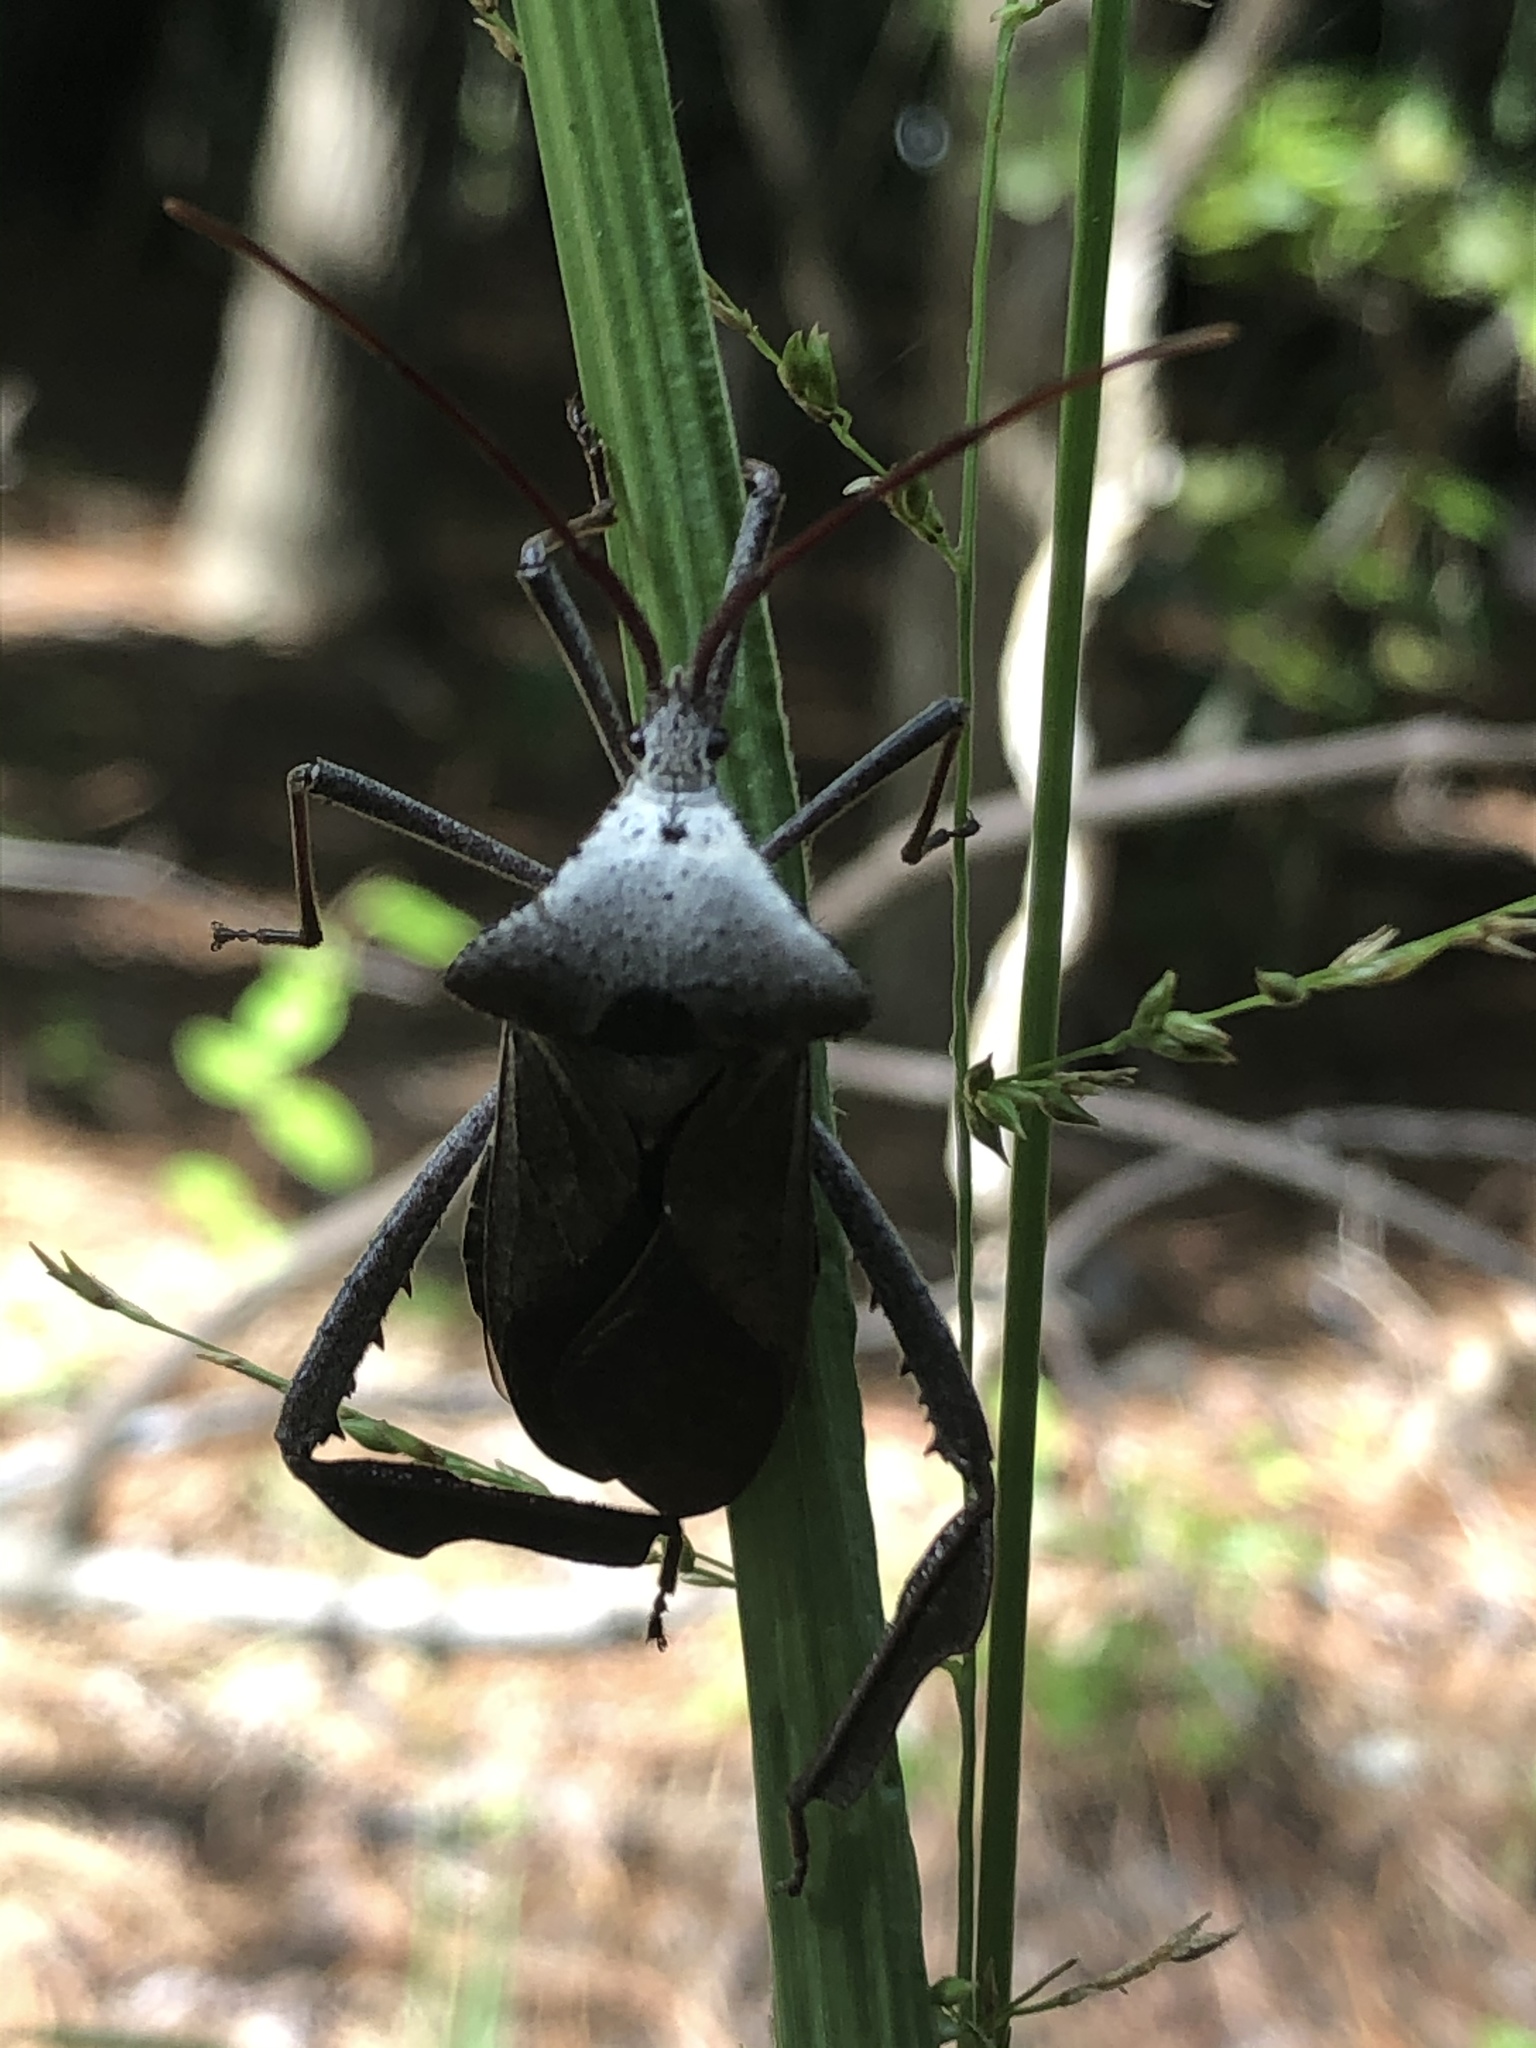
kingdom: Animalia
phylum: Arthropoda
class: Insecta
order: Hemiptera
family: Coreidae
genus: Acanthocephala
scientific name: Acanthocephala declivis
